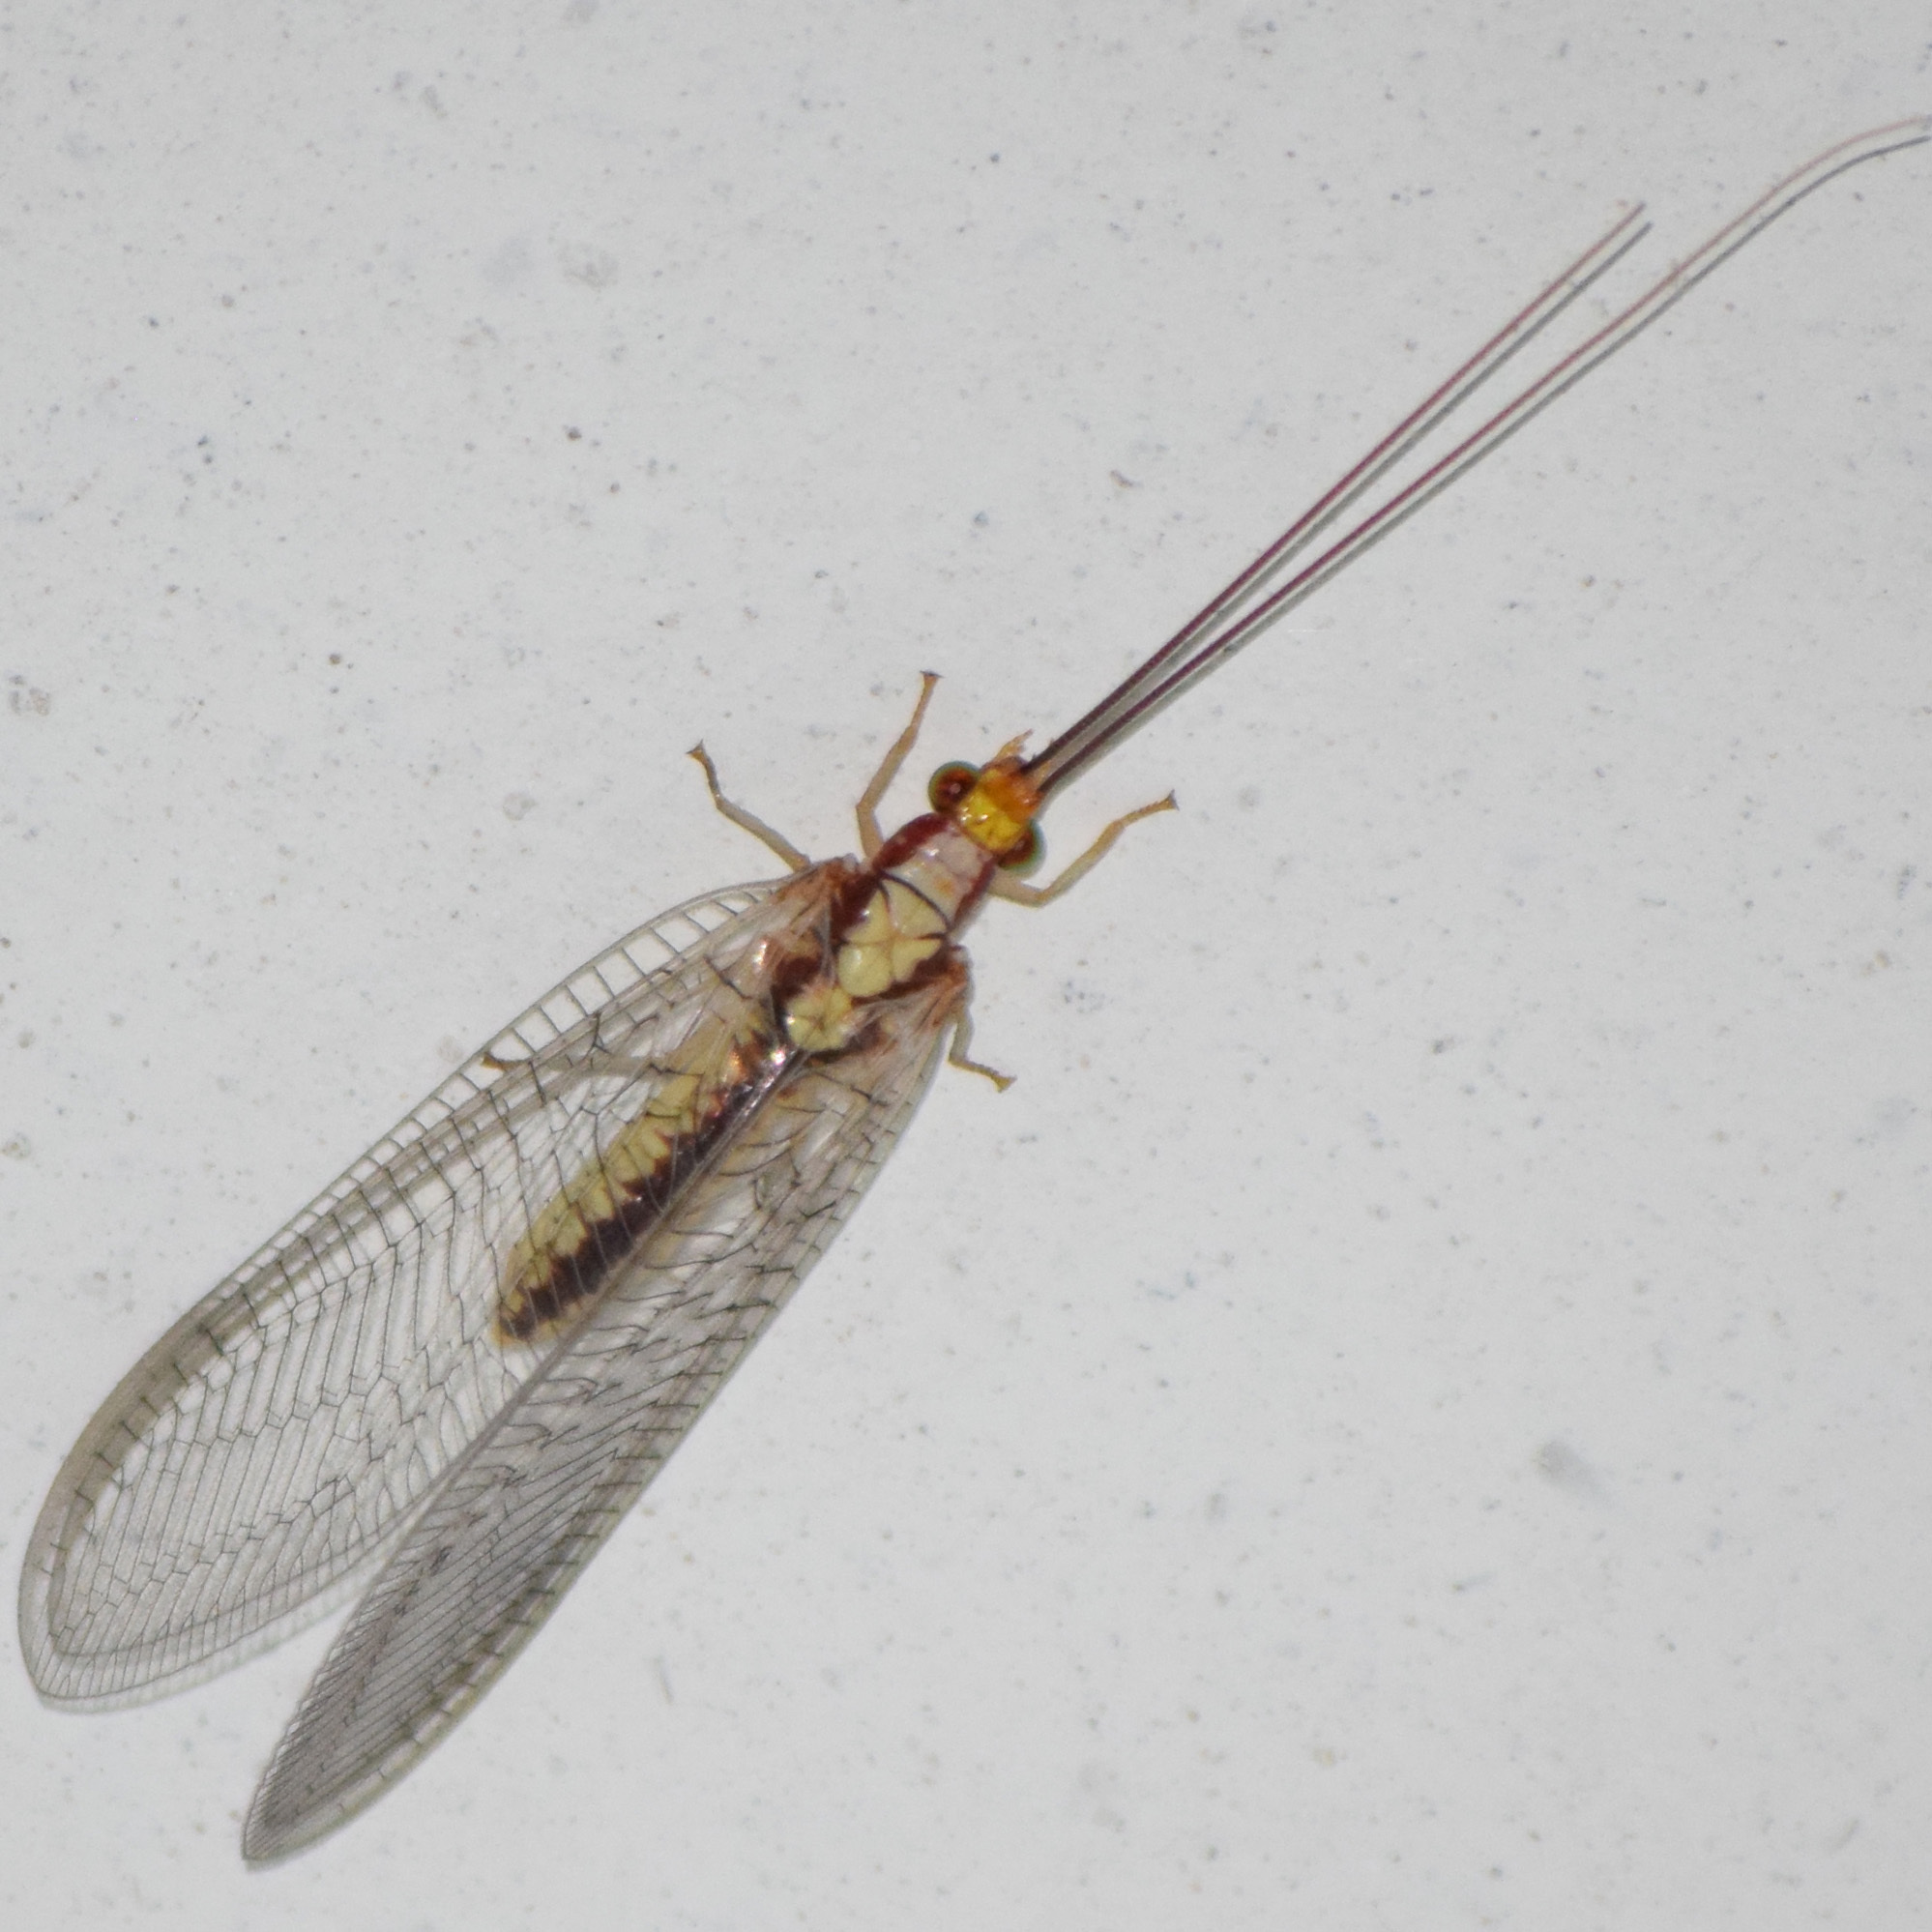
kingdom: Animalia
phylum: Arthropoda
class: Insecta
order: Neuroptera
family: Chrysopidae
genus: Italochrysa
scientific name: Italochrysa italica
